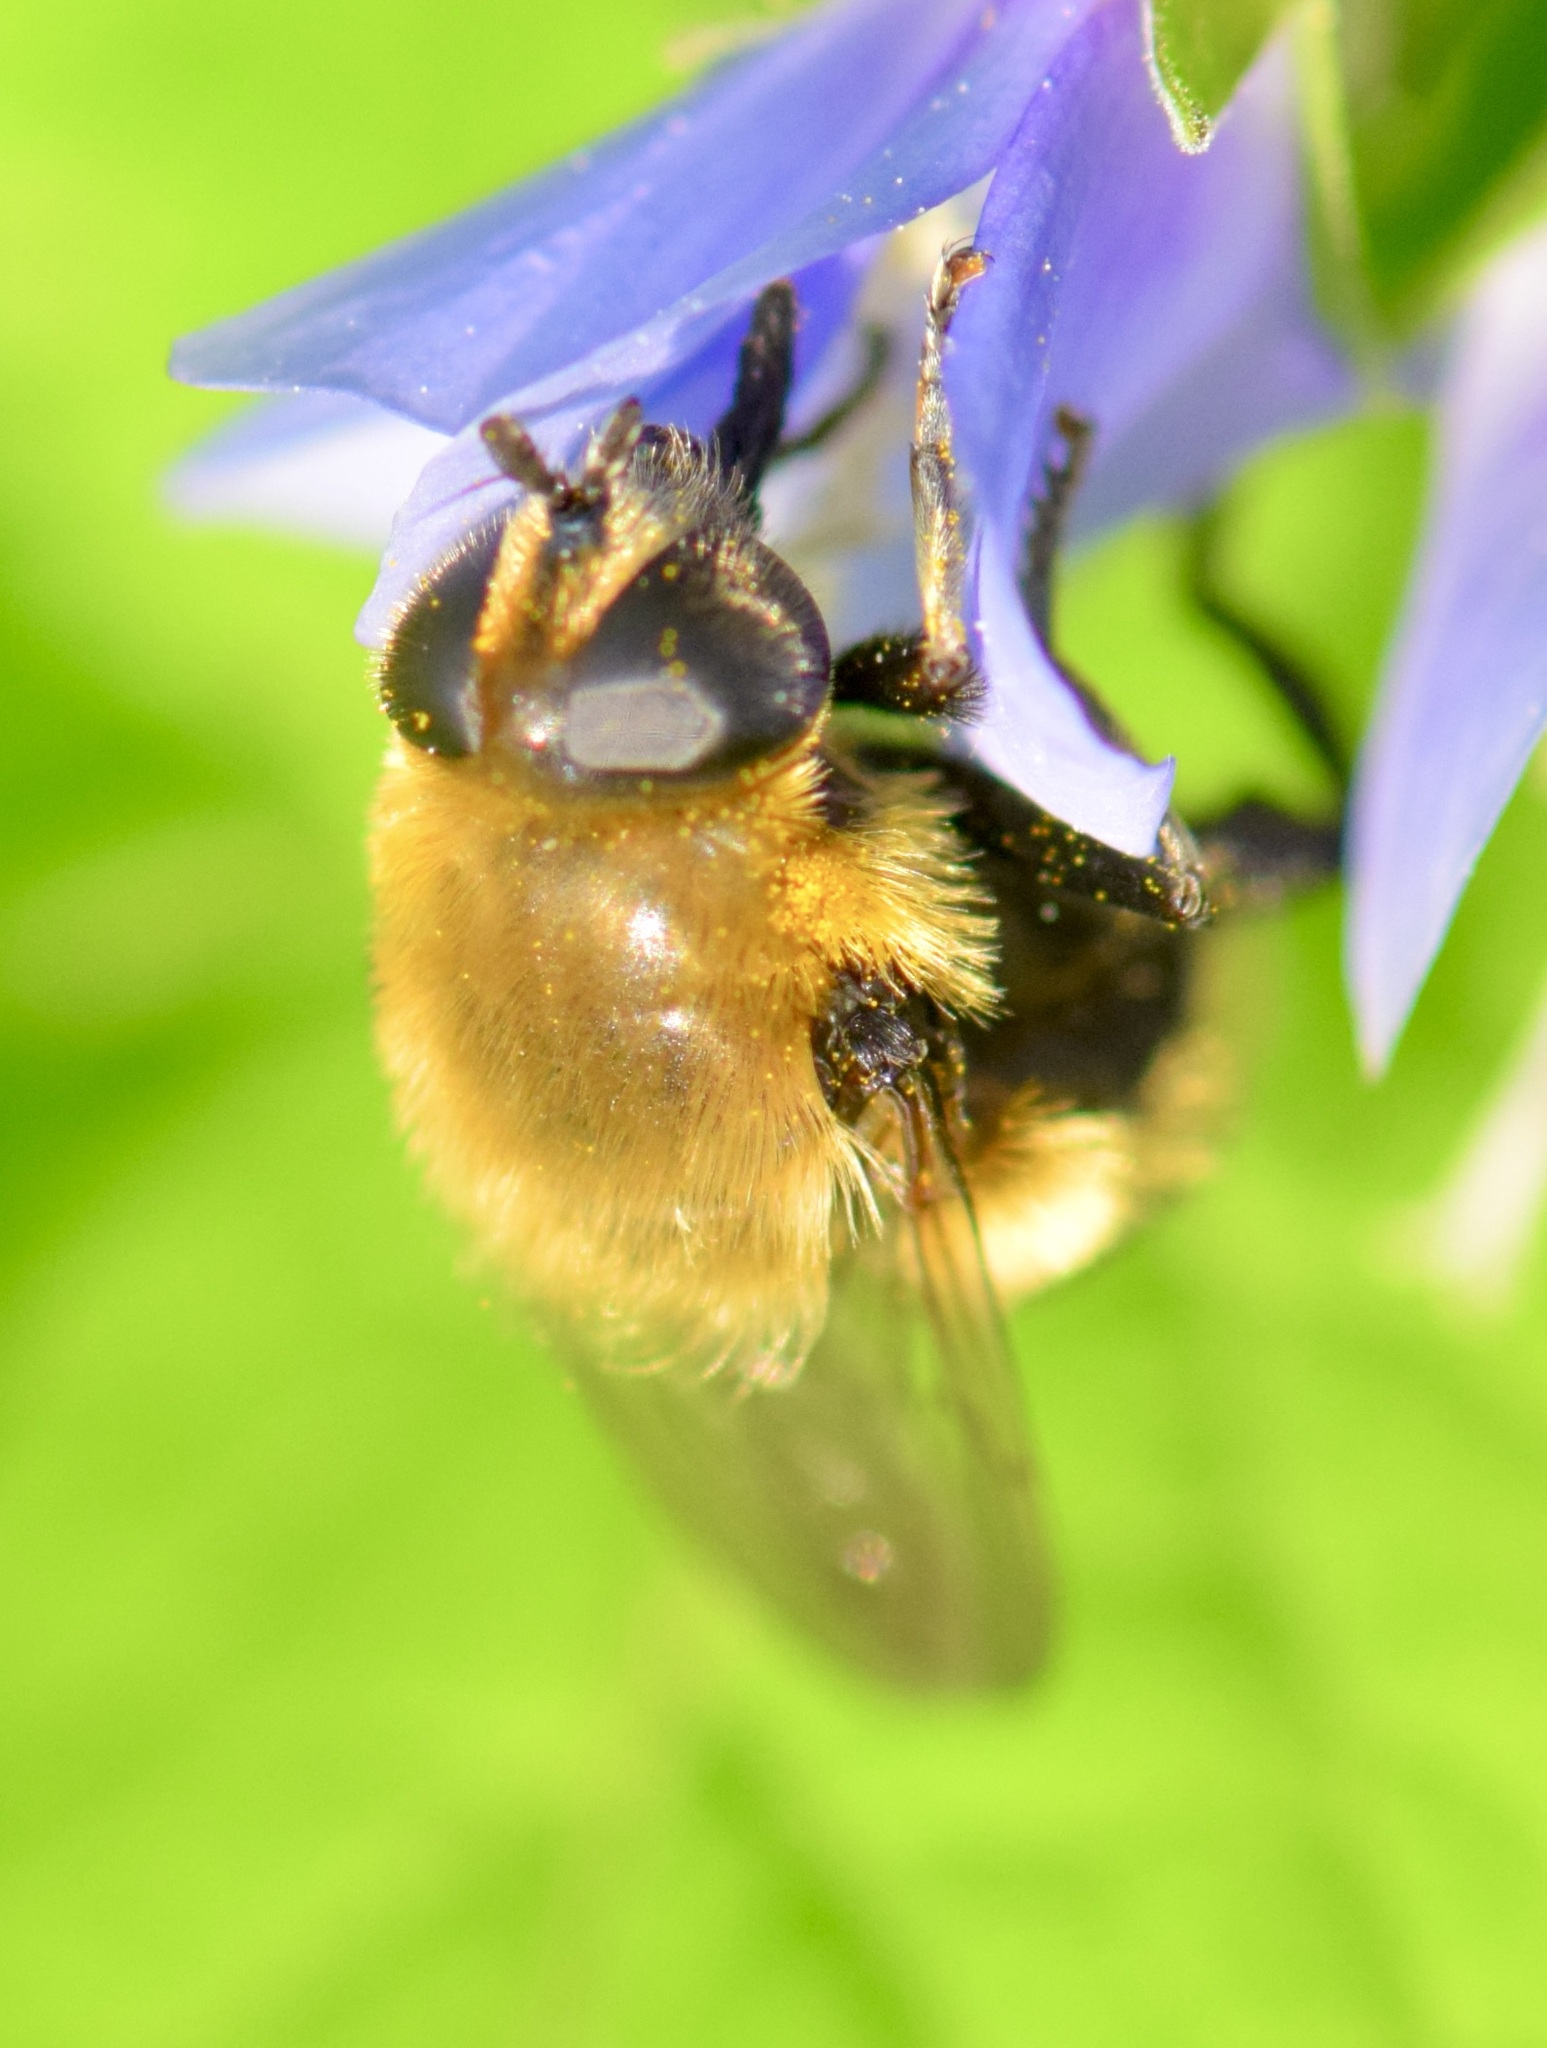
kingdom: Animalia
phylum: Arthropoda
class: Insecta
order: Diptera
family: Syrphidae
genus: Merodon
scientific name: Merodon equestris
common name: Greater bulb-fly
